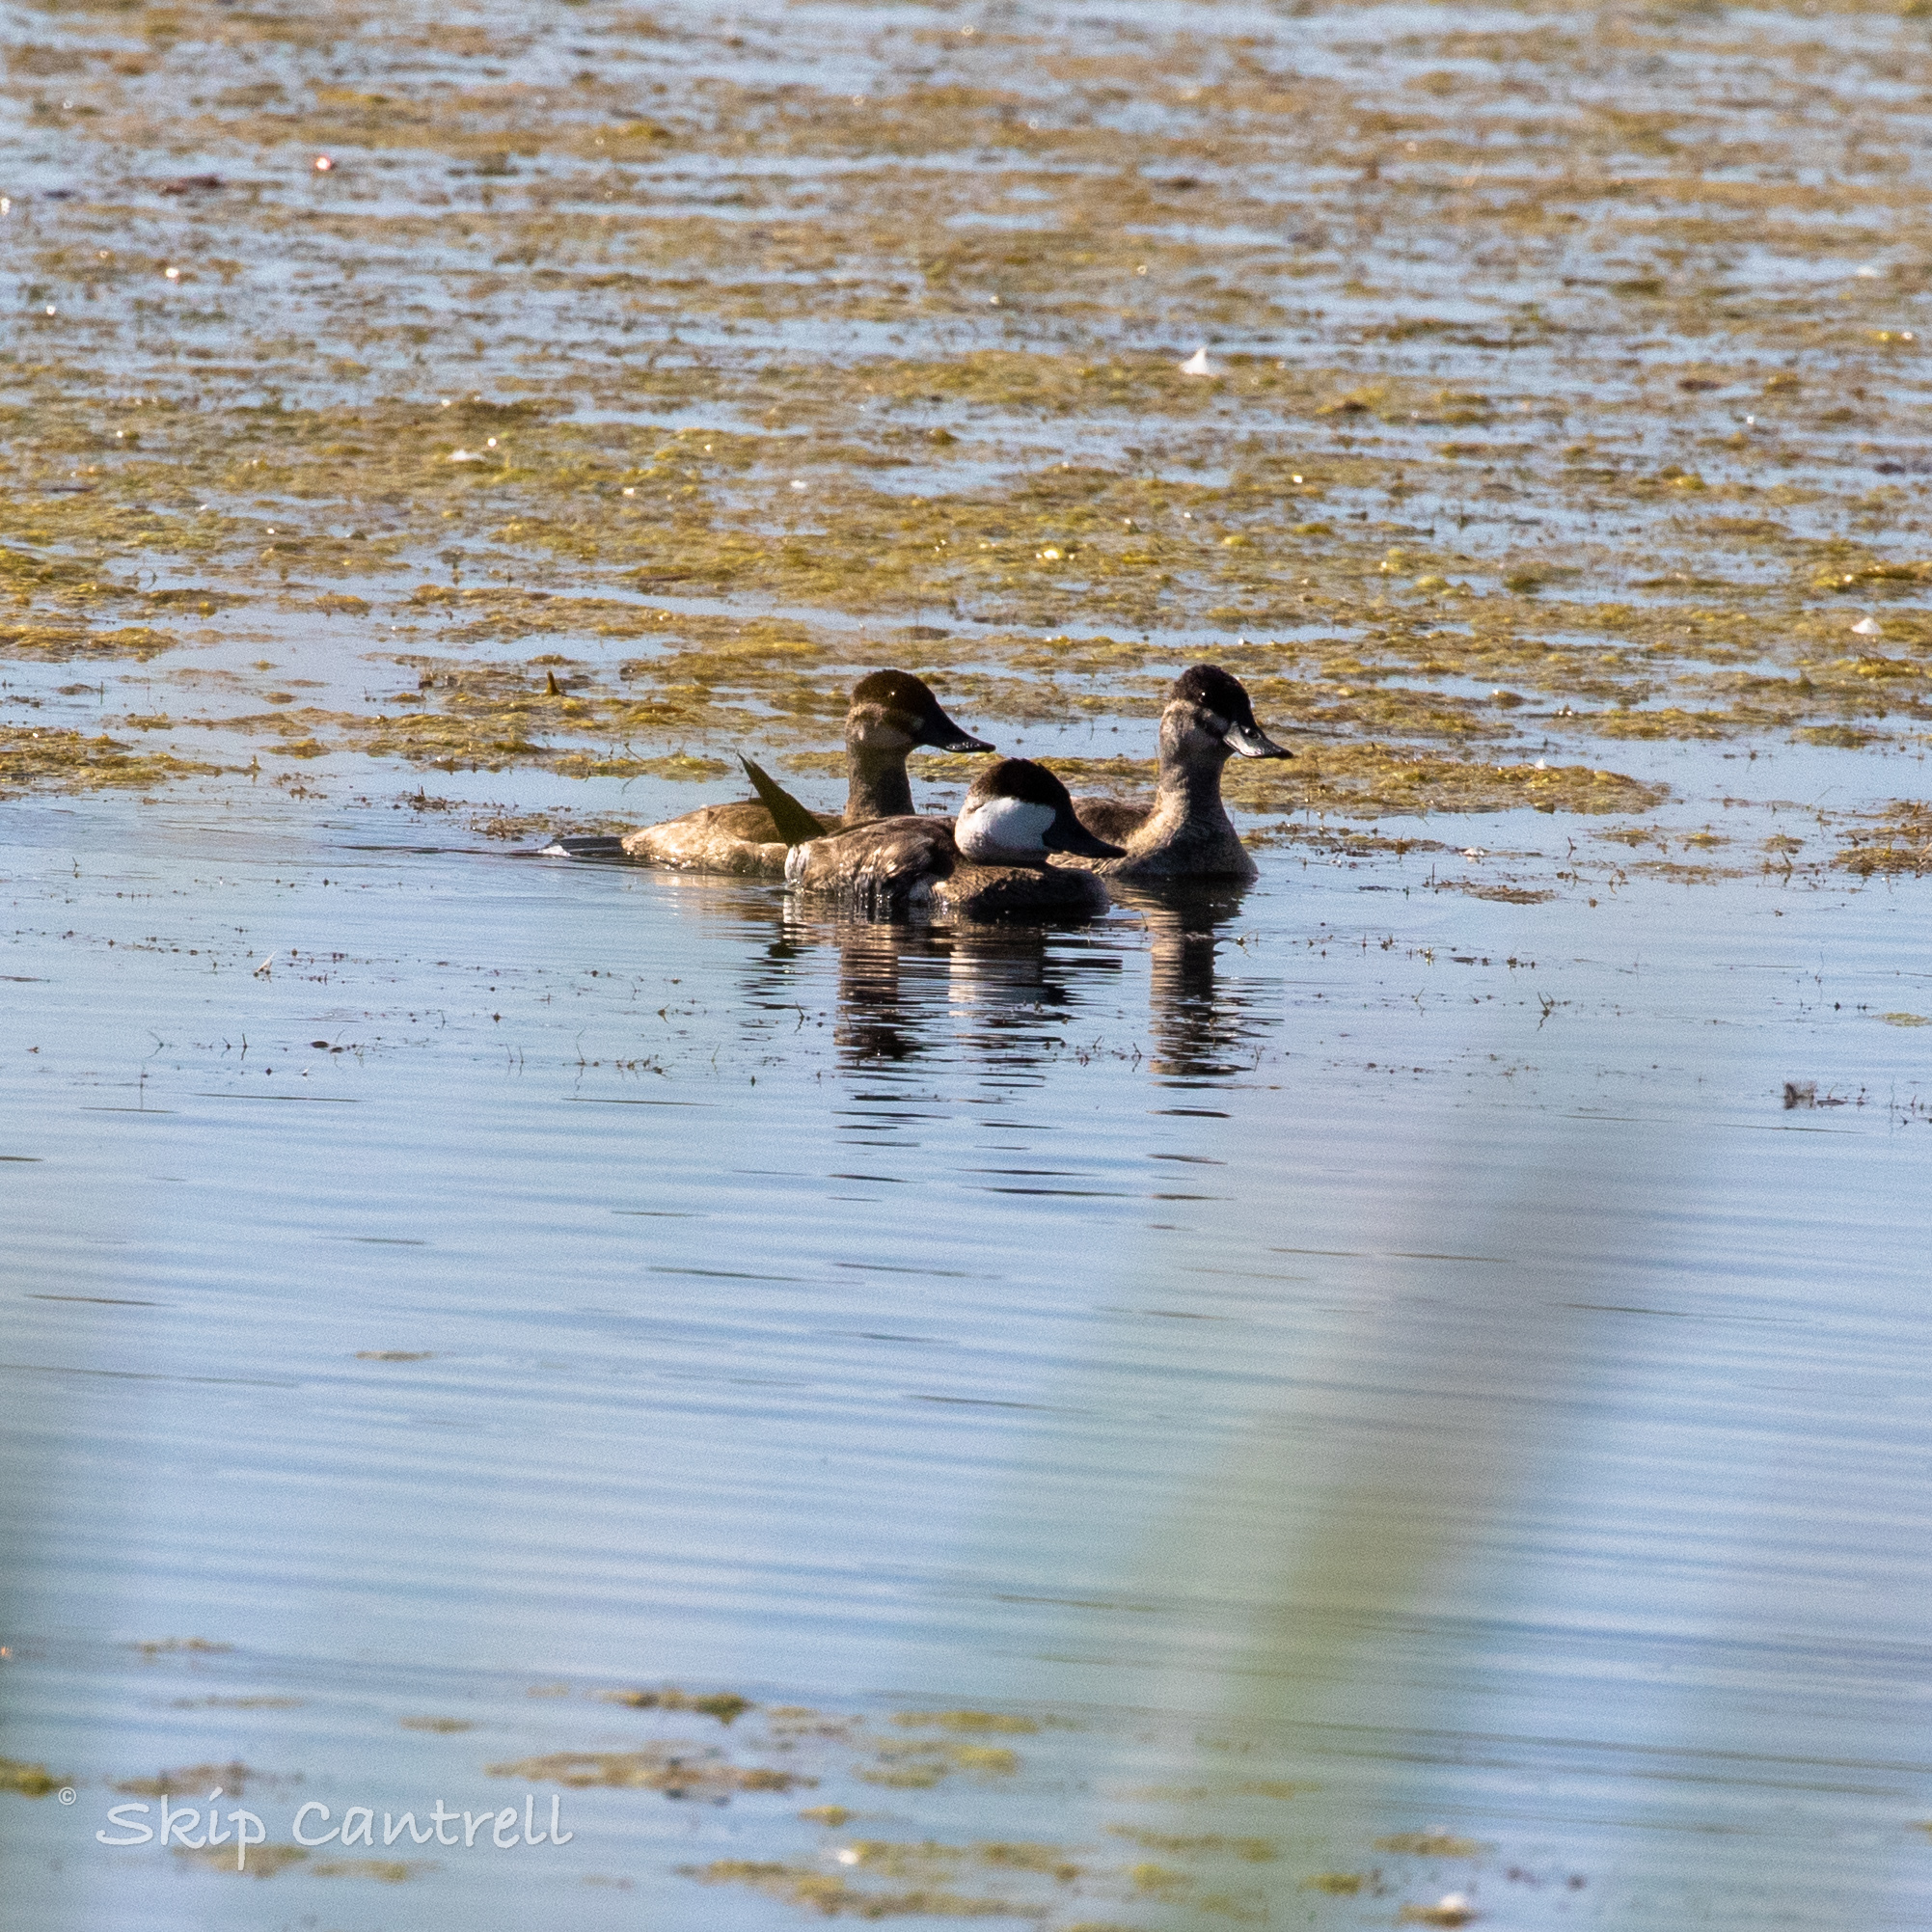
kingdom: Animalia
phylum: Chordata
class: Aves
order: Anseriformes
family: Anatidae
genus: Oxyura
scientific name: Oxyura jamaicensis
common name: Ruddy duck
